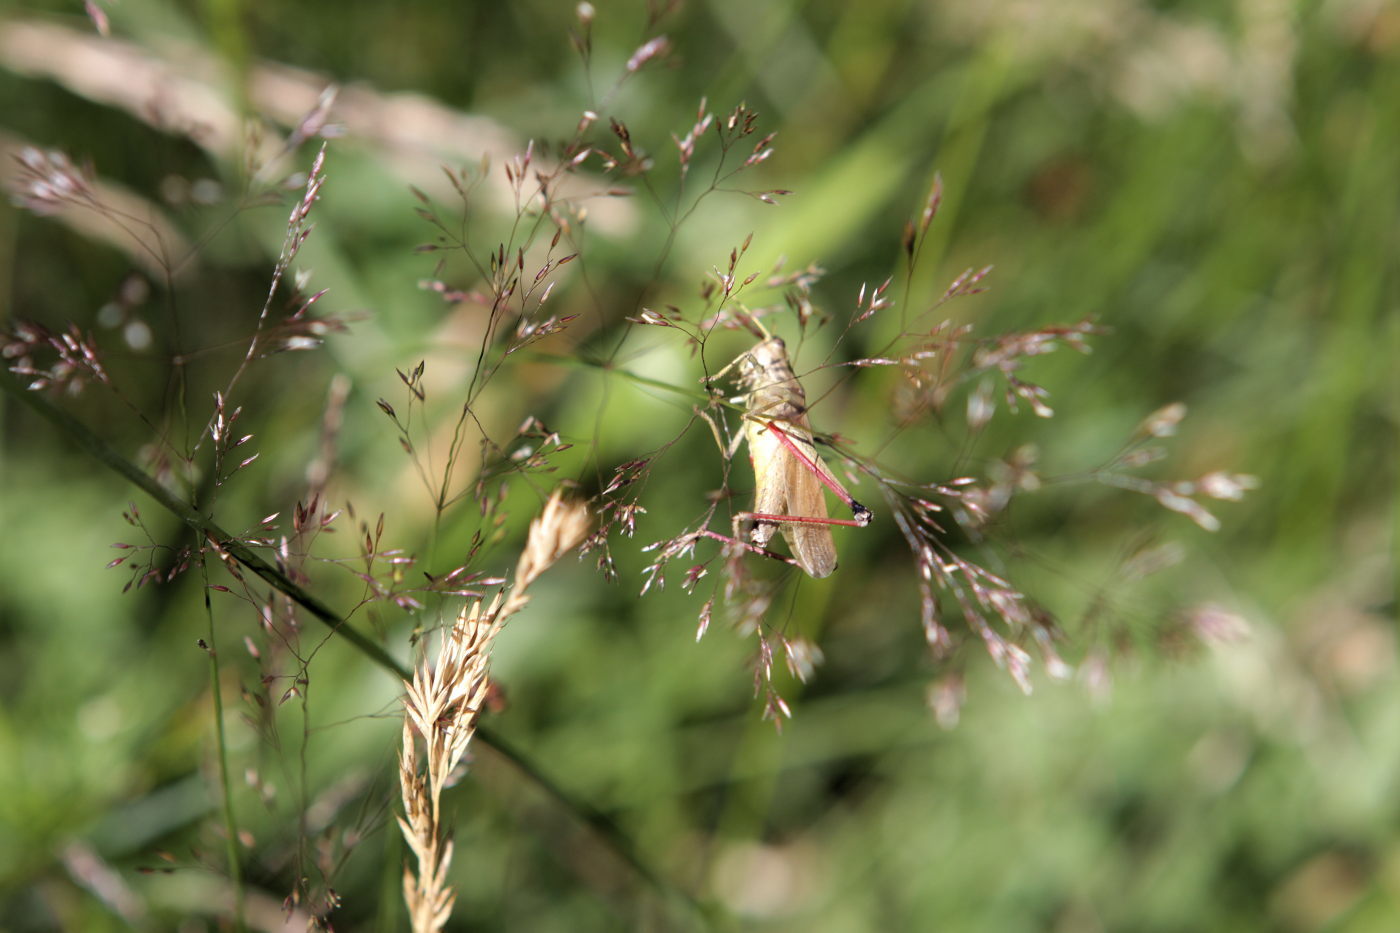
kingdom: Animalia
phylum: Arthropoda
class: Insecta
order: Orthoptera
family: Acrididae
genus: Chrysochraon
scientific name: Chrysochraon dispar
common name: Large gold grasshopper
